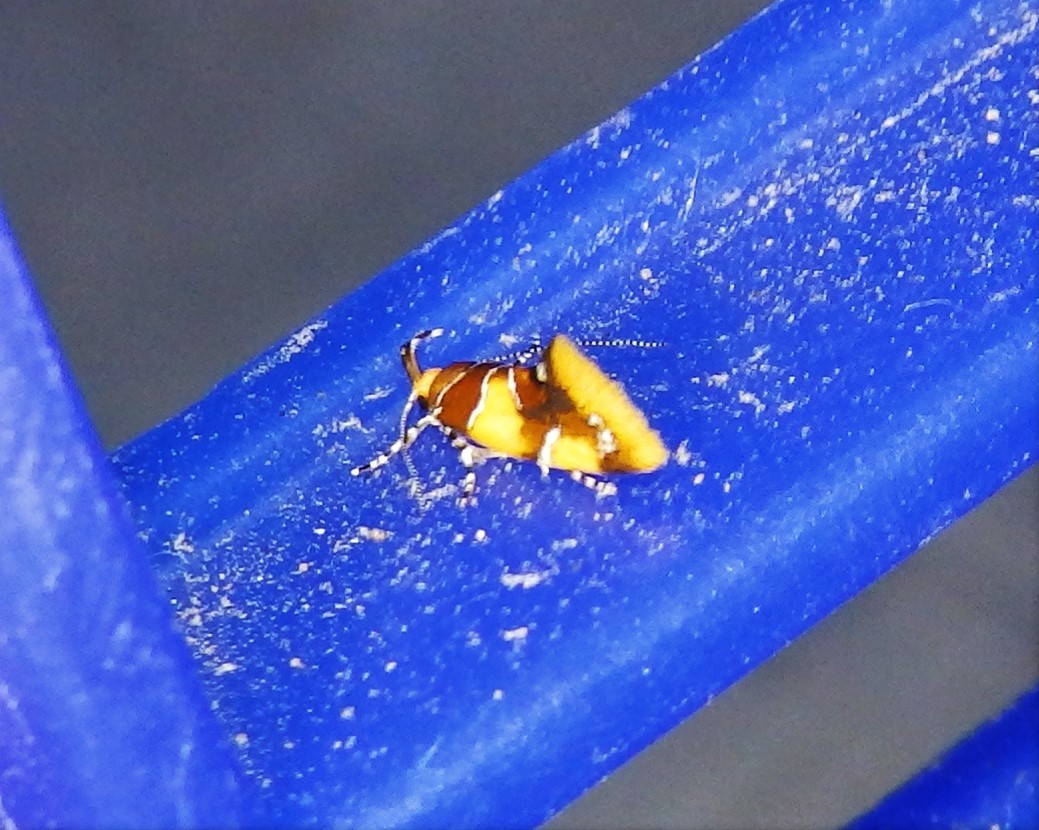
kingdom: Animalia
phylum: Arthropoda
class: Insecta
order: Lepidoptera
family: Oecophoridae
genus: Callima
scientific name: Callima argenticinctella
